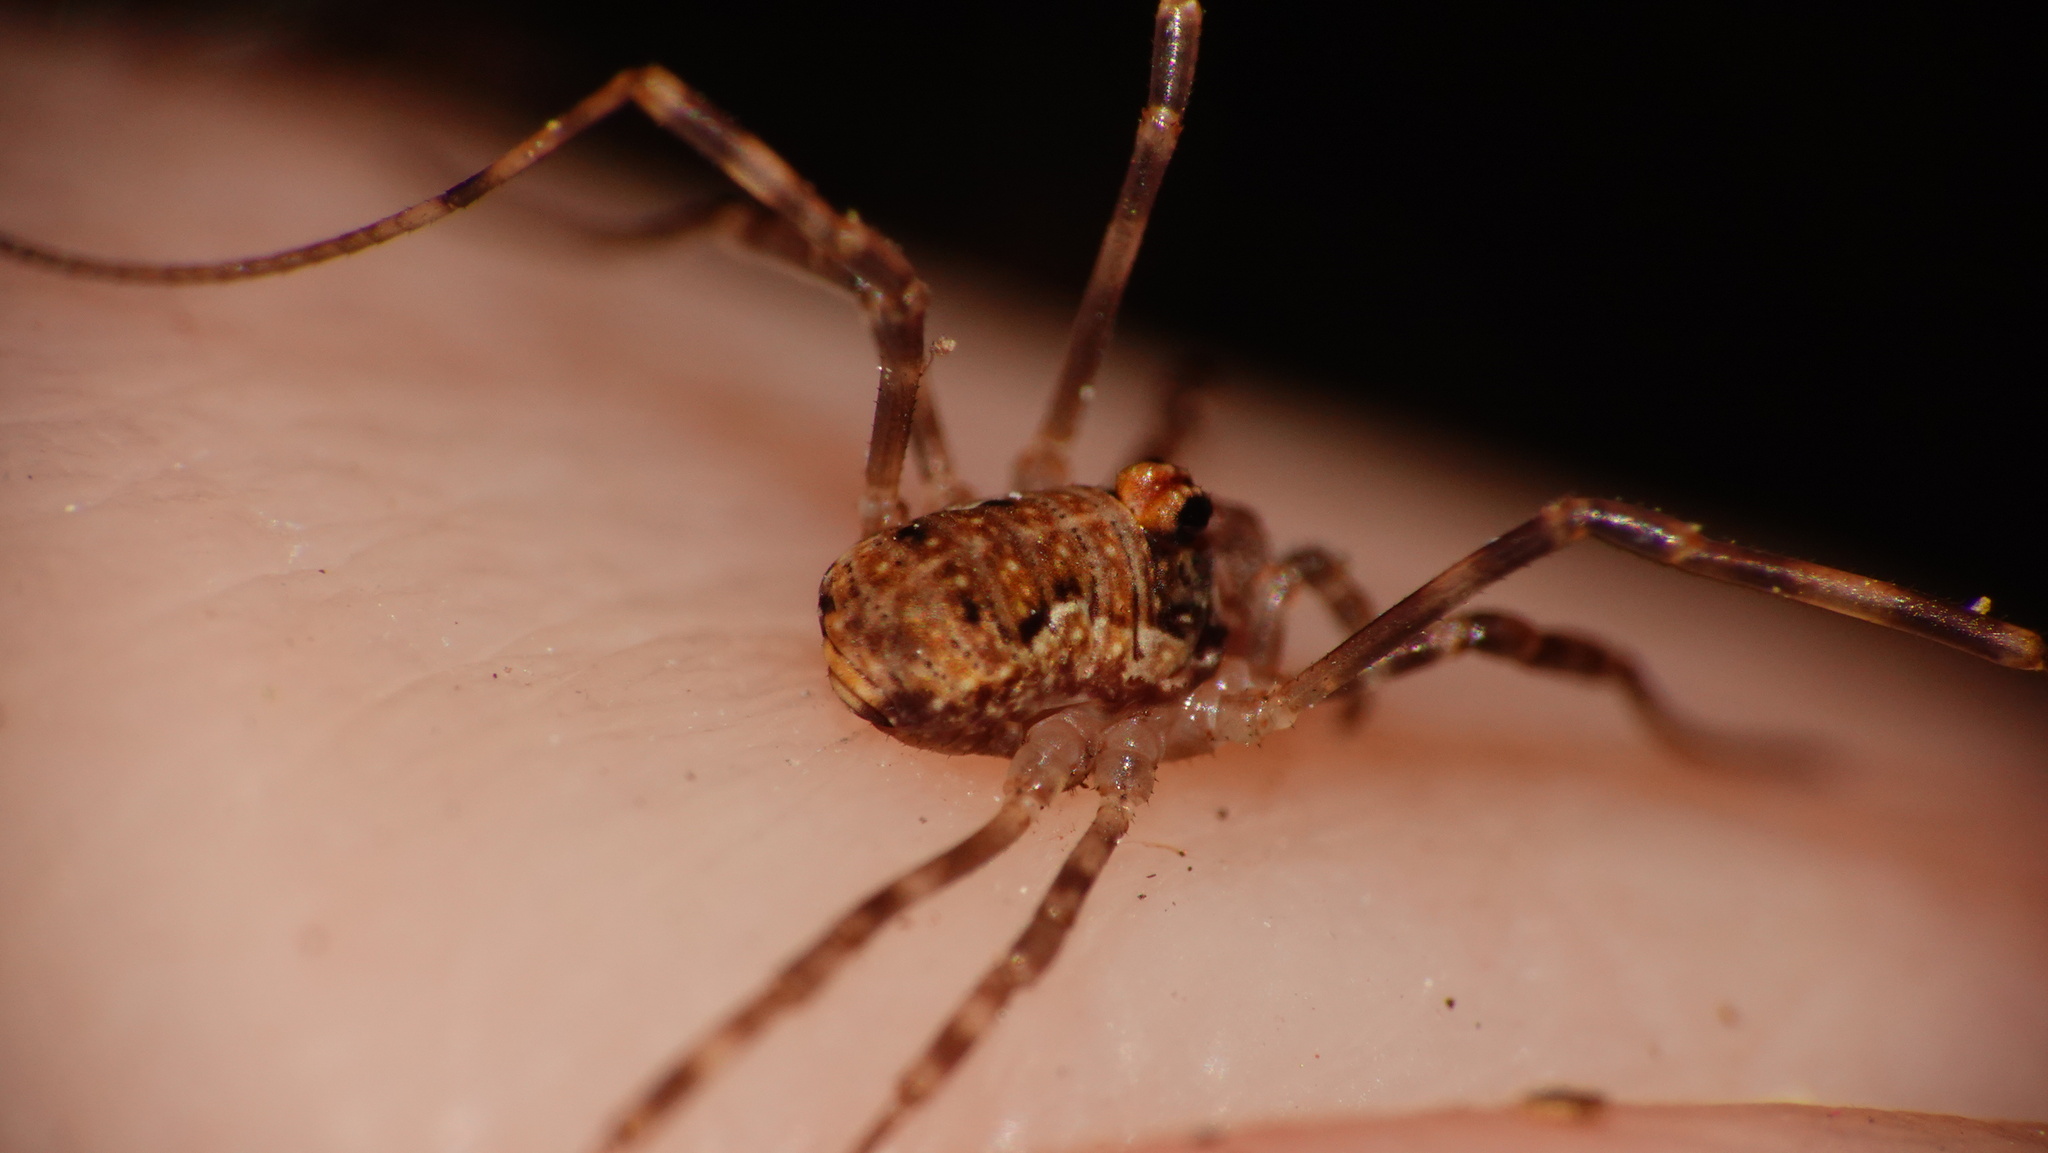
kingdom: Animalia
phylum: Arthropoda
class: Arachnida
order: Opiliones
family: Phalangiidae
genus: Dasylobus
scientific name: Dasylobus graniferus
